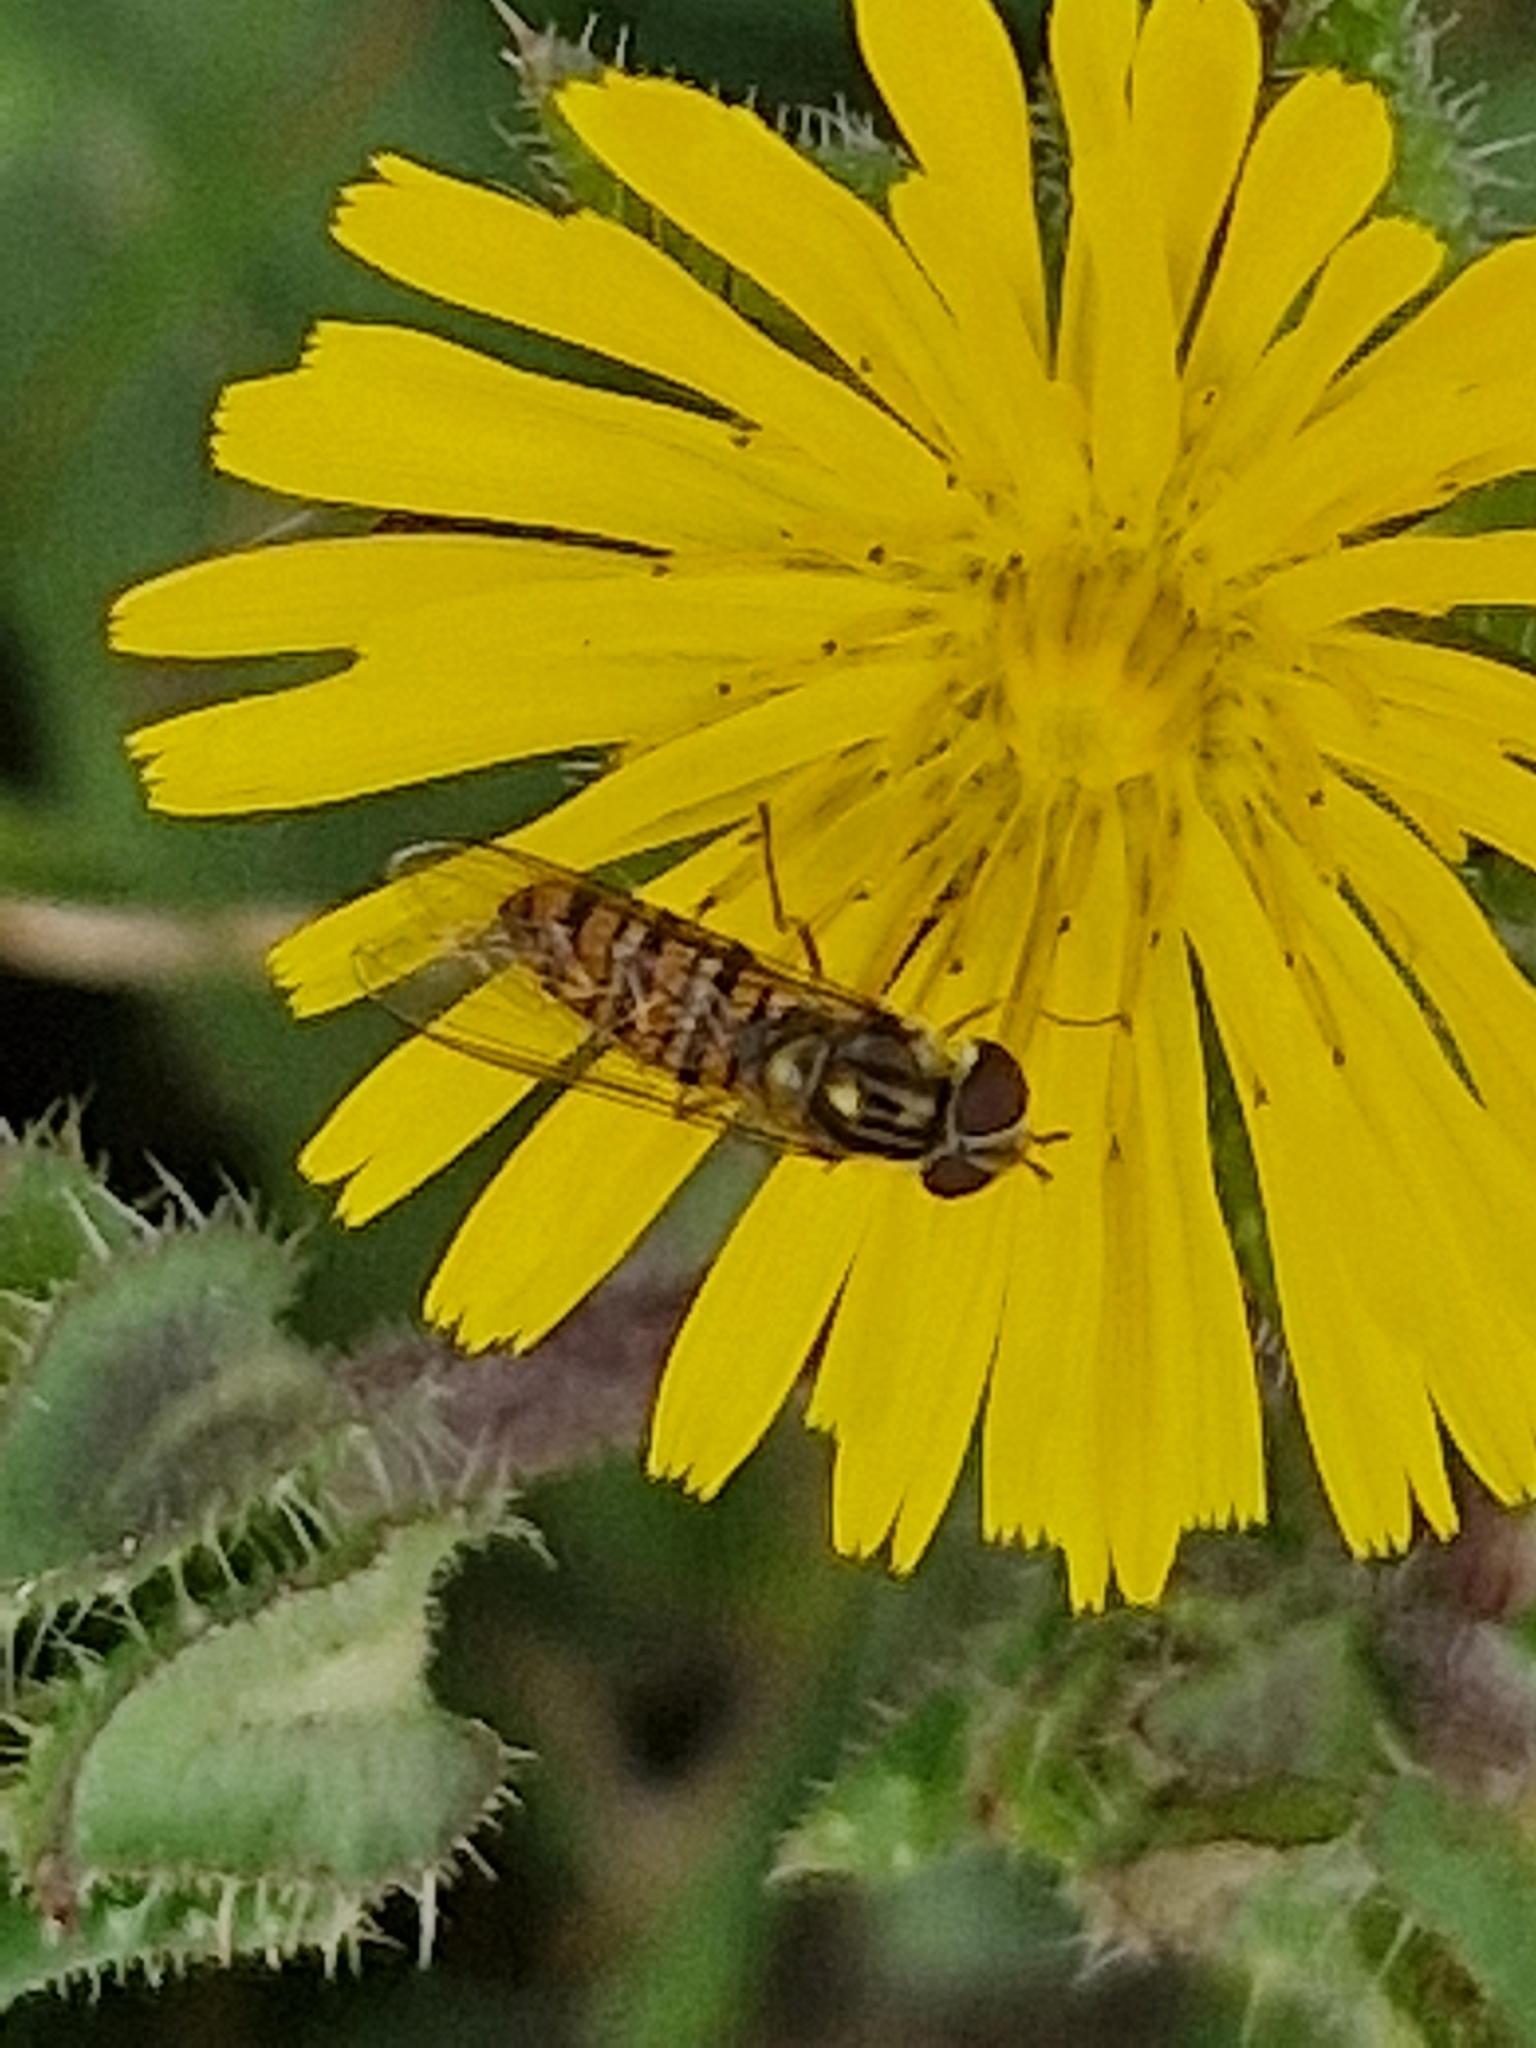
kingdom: Animalia
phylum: Arthropoda
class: Insecta
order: Diptera
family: Syrphidae
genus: Episyrphus
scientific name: Episyrphus balteatus
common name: Marmalade hoverfly
